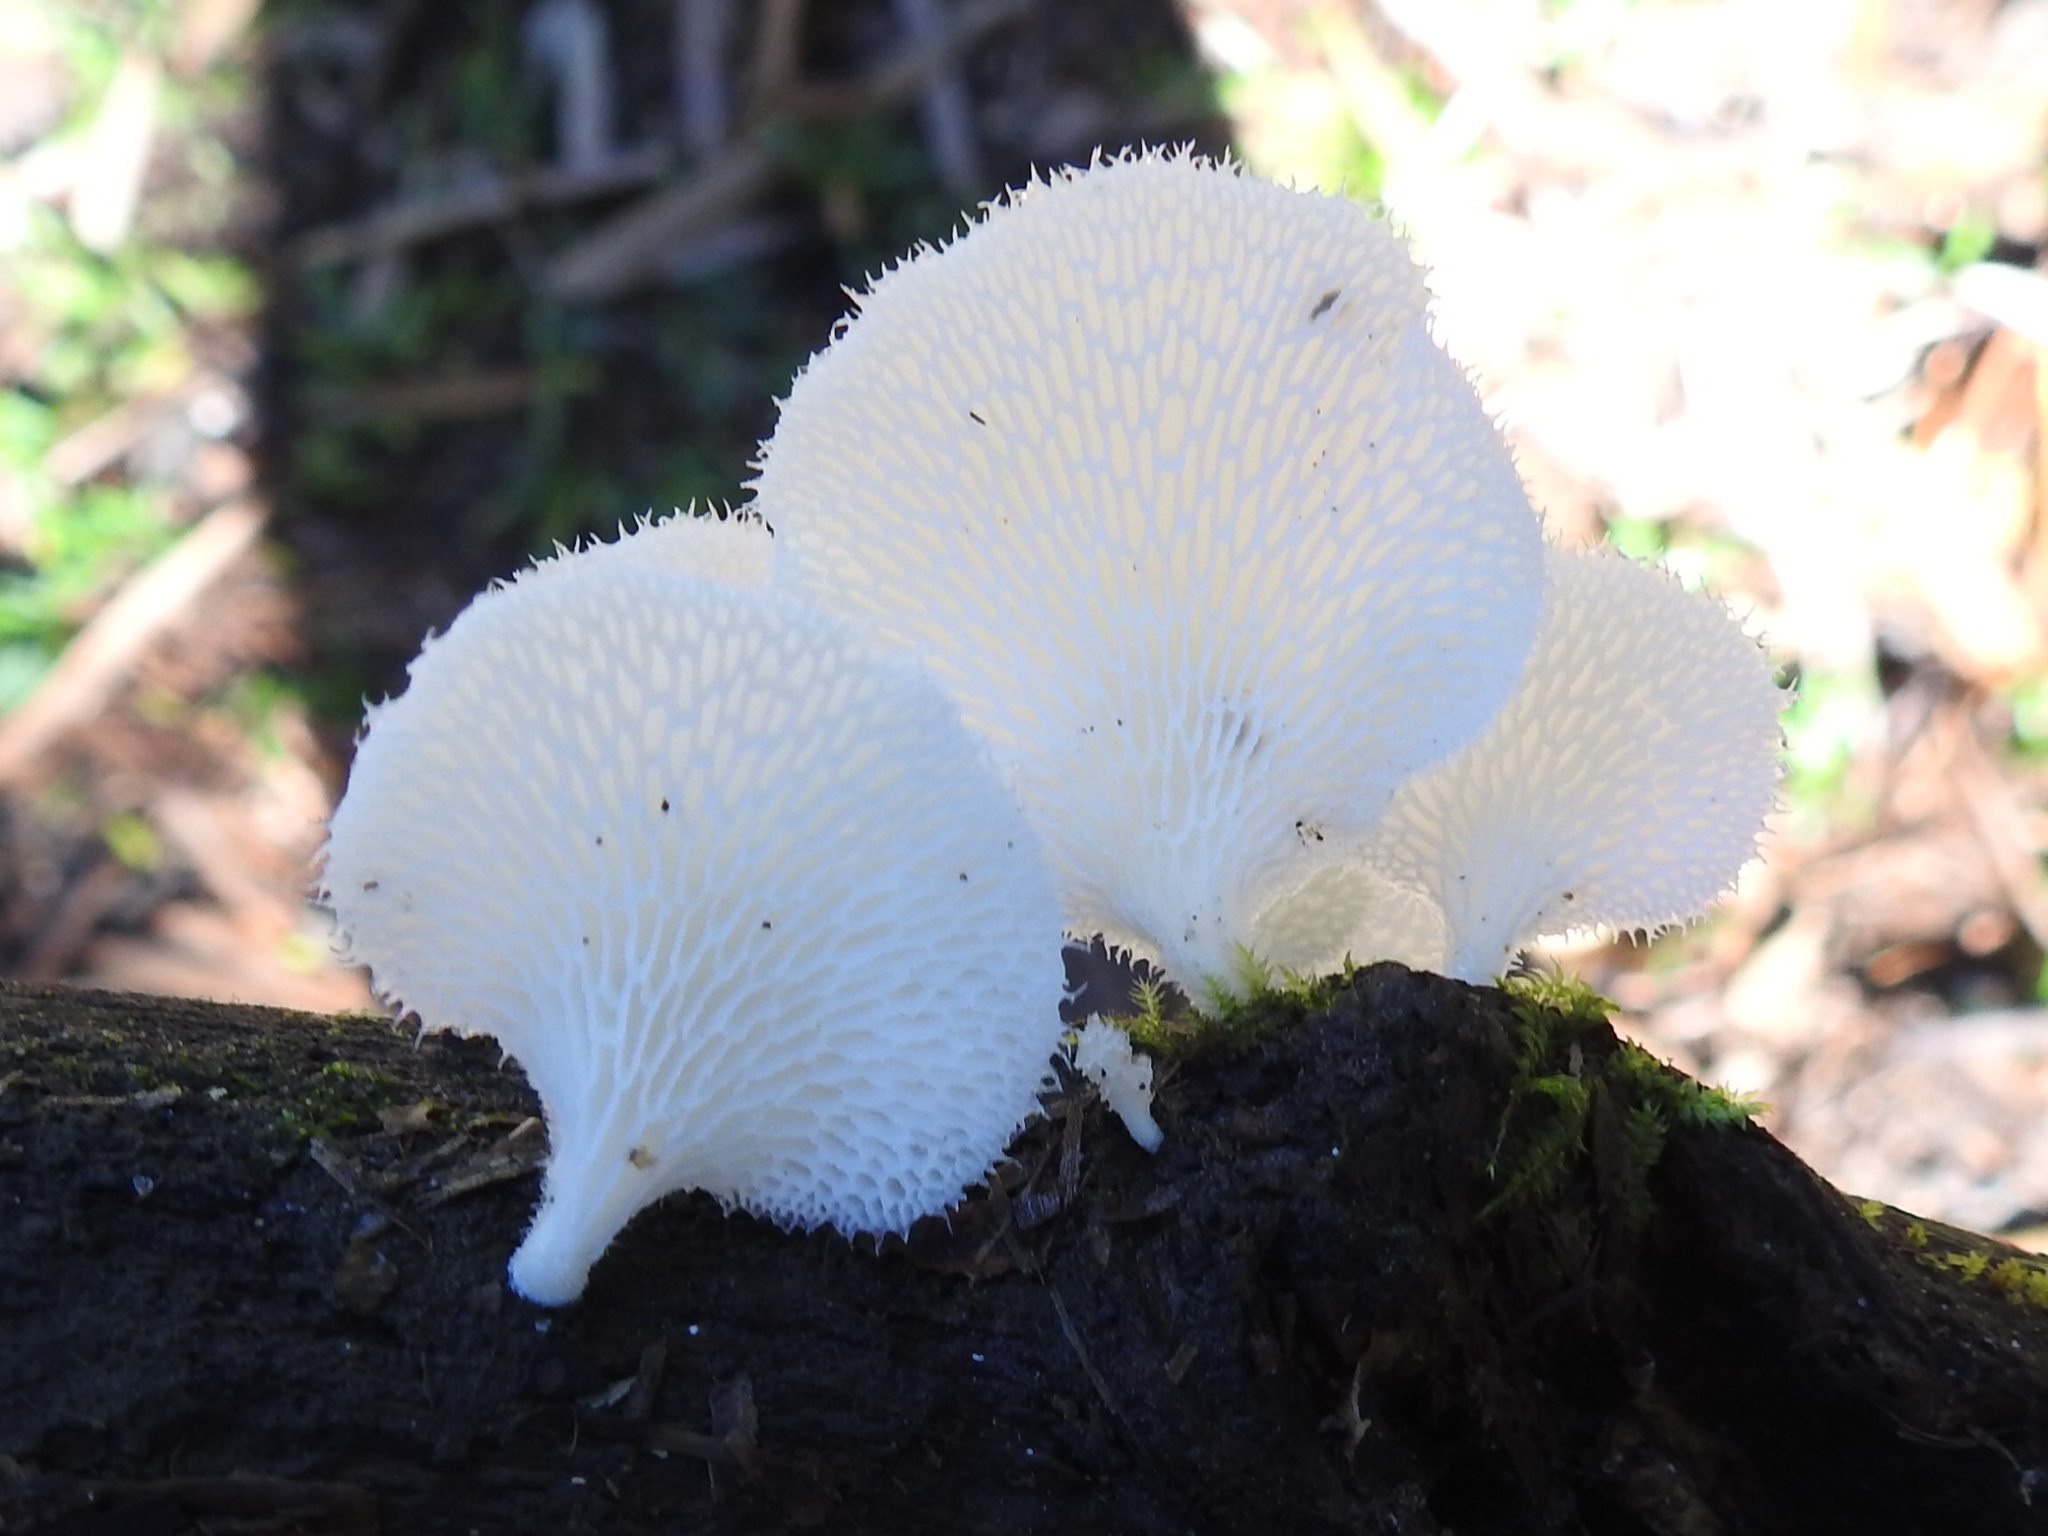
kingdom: Fungi
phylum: Basidiomycota
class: Agaricomycetes
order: Polyporales
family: Polyporaceae
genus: Favolus
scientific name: Favolus tenuiculus
